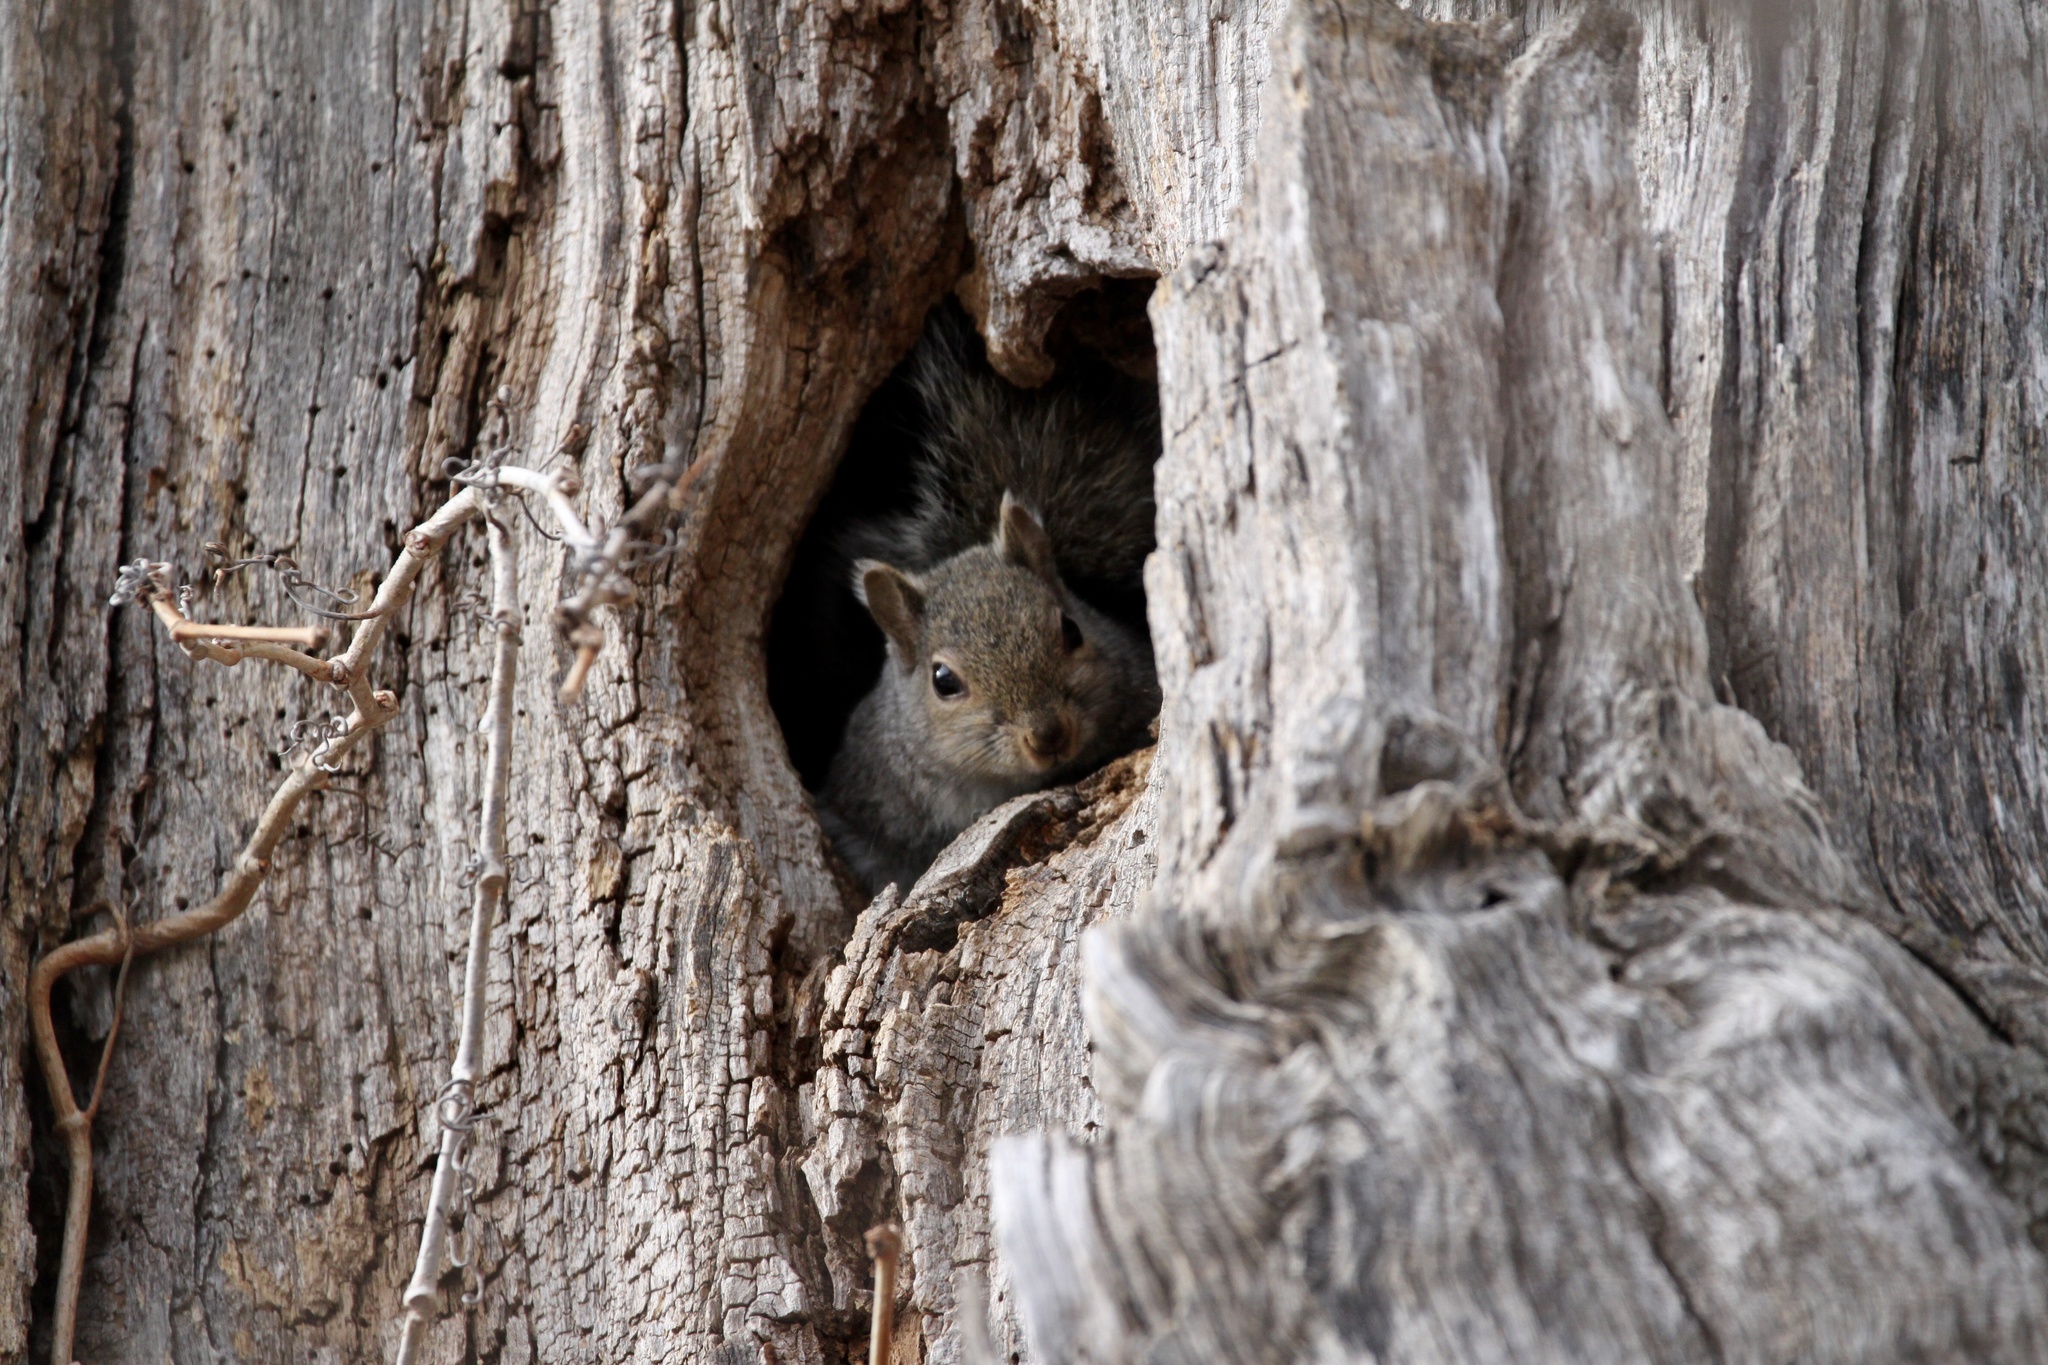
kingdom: Animalia
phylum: Chordata
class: Mammalia
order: Rodentia
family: Sciuridae
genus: Sciurus
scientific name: Sciurus carolinensis
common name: Eastern gray squirrel
